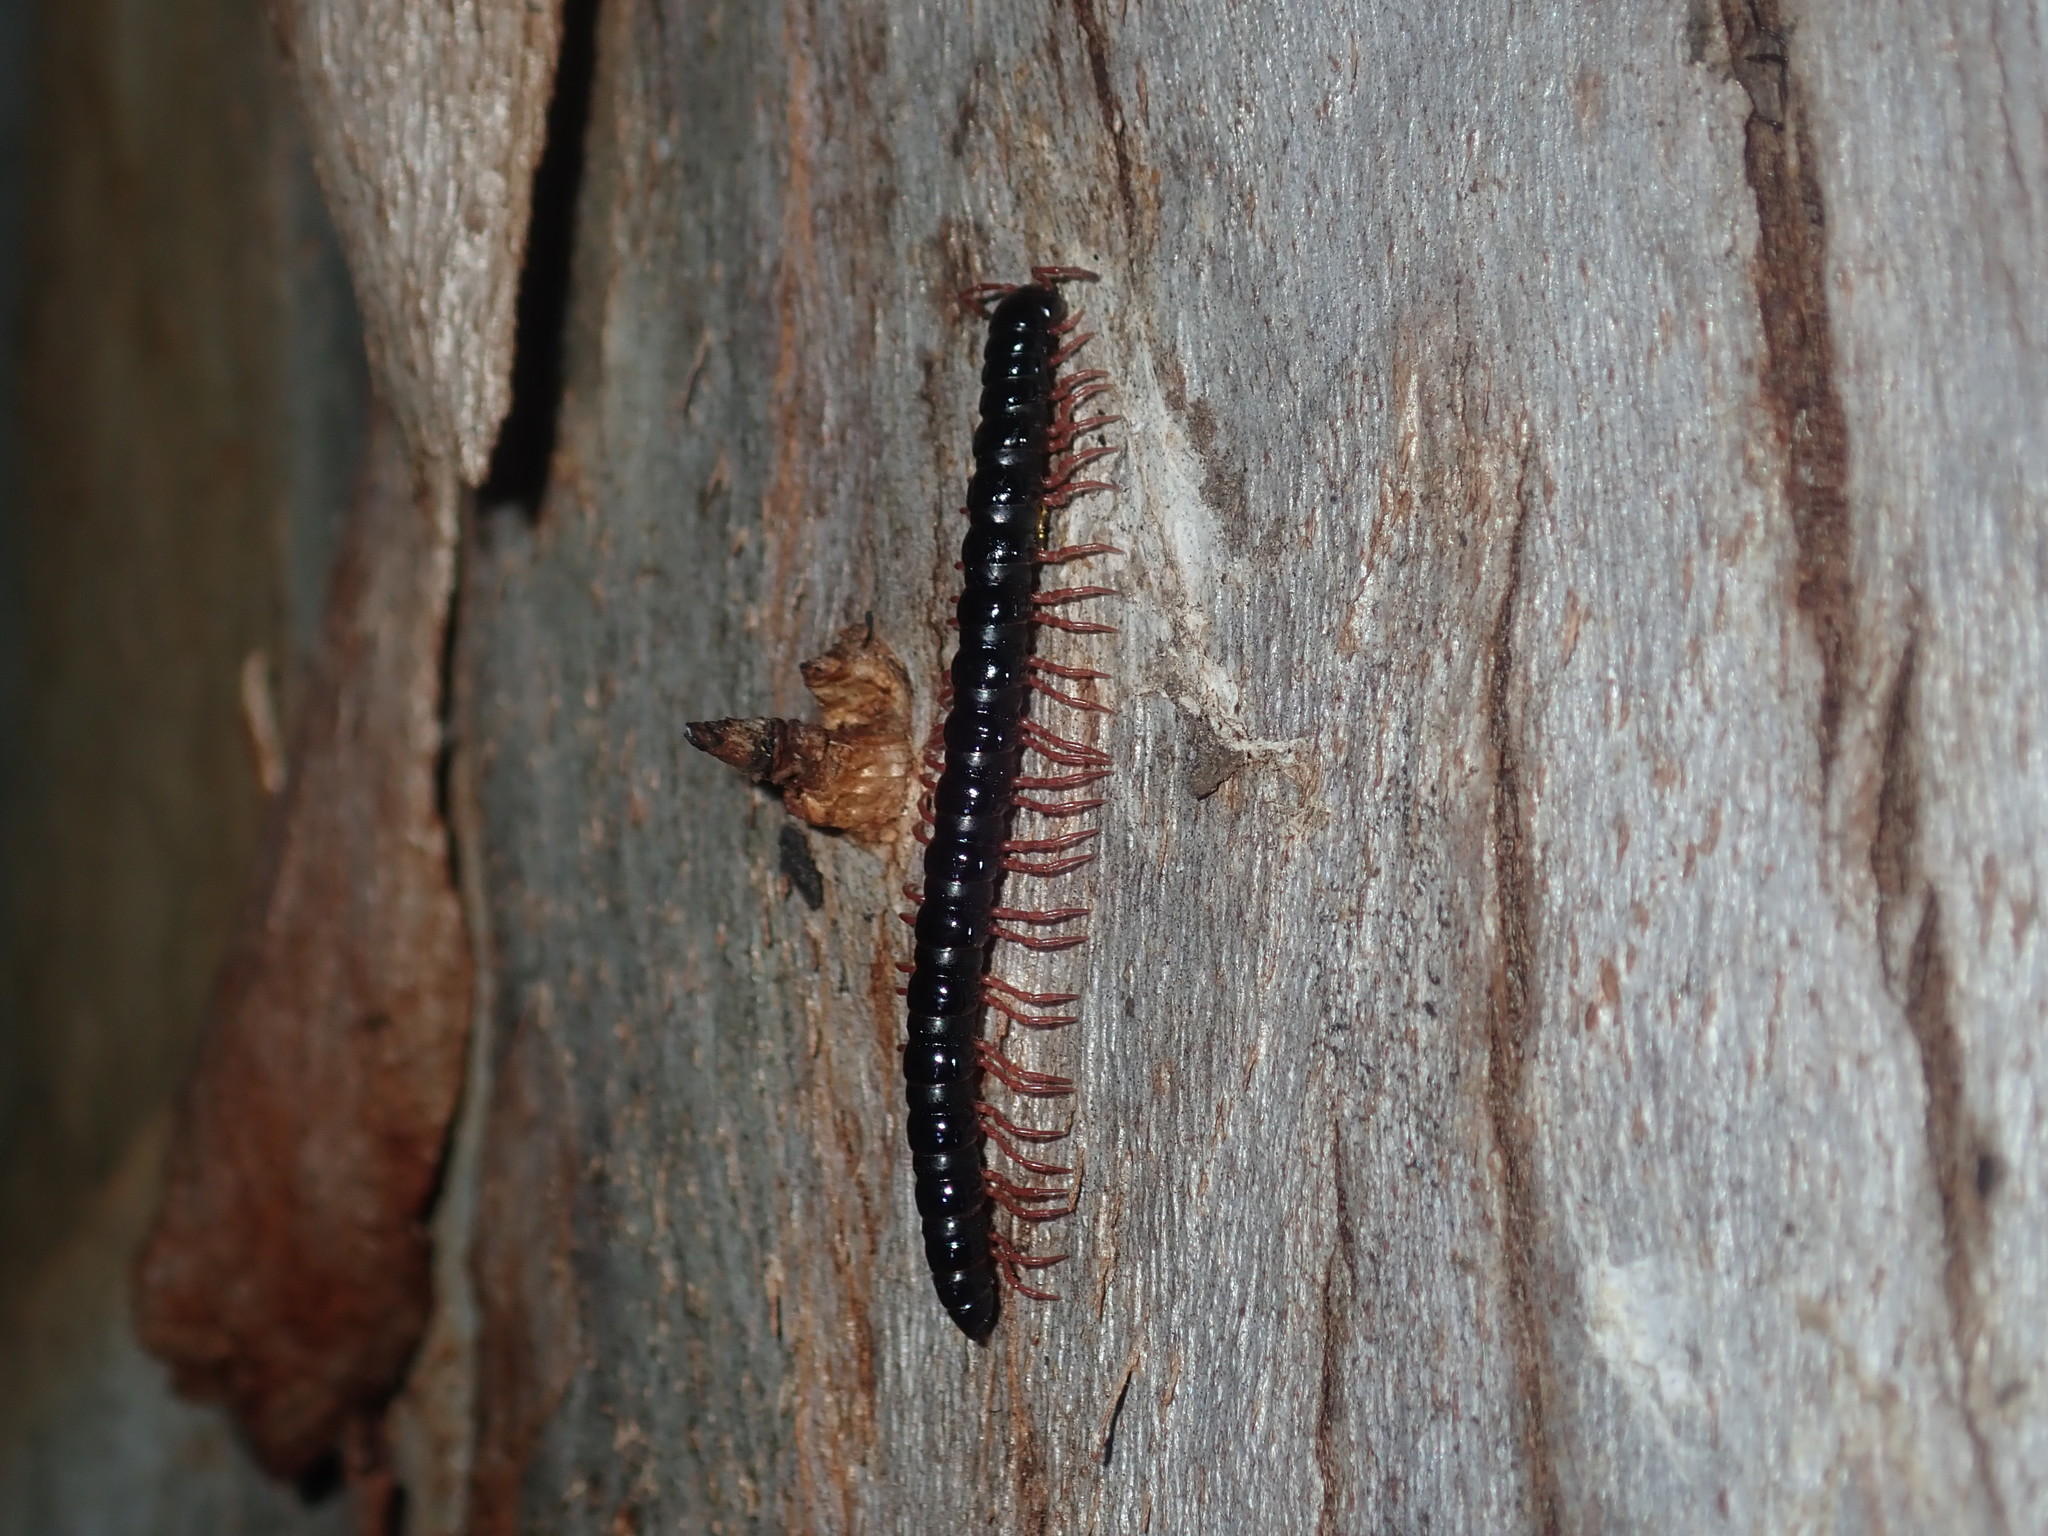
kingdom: Animalia
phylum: Arthropoda
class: Diplopoda
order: Polydesmida
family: Paradoxosomatidae
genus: Heterocladosoma
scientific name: Heterocladosoma
